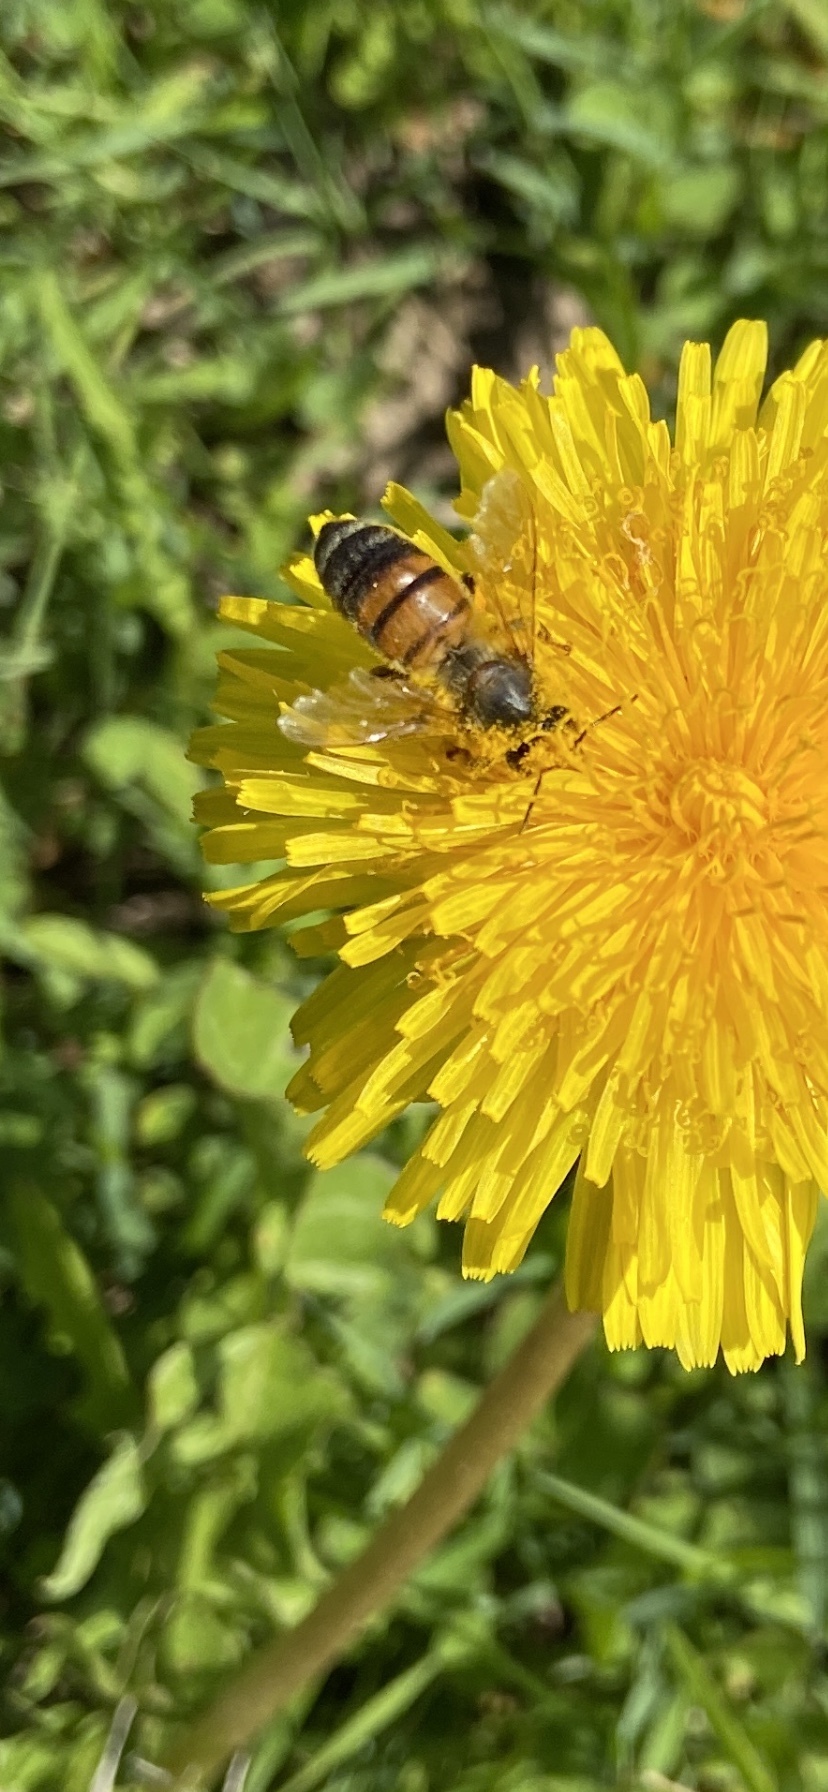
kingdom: Animalia
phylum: Arthropoda
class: Insecta
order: Hymenoptera
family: Apidae
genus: Apis
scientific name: Apis mellifera
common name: Honey bee
